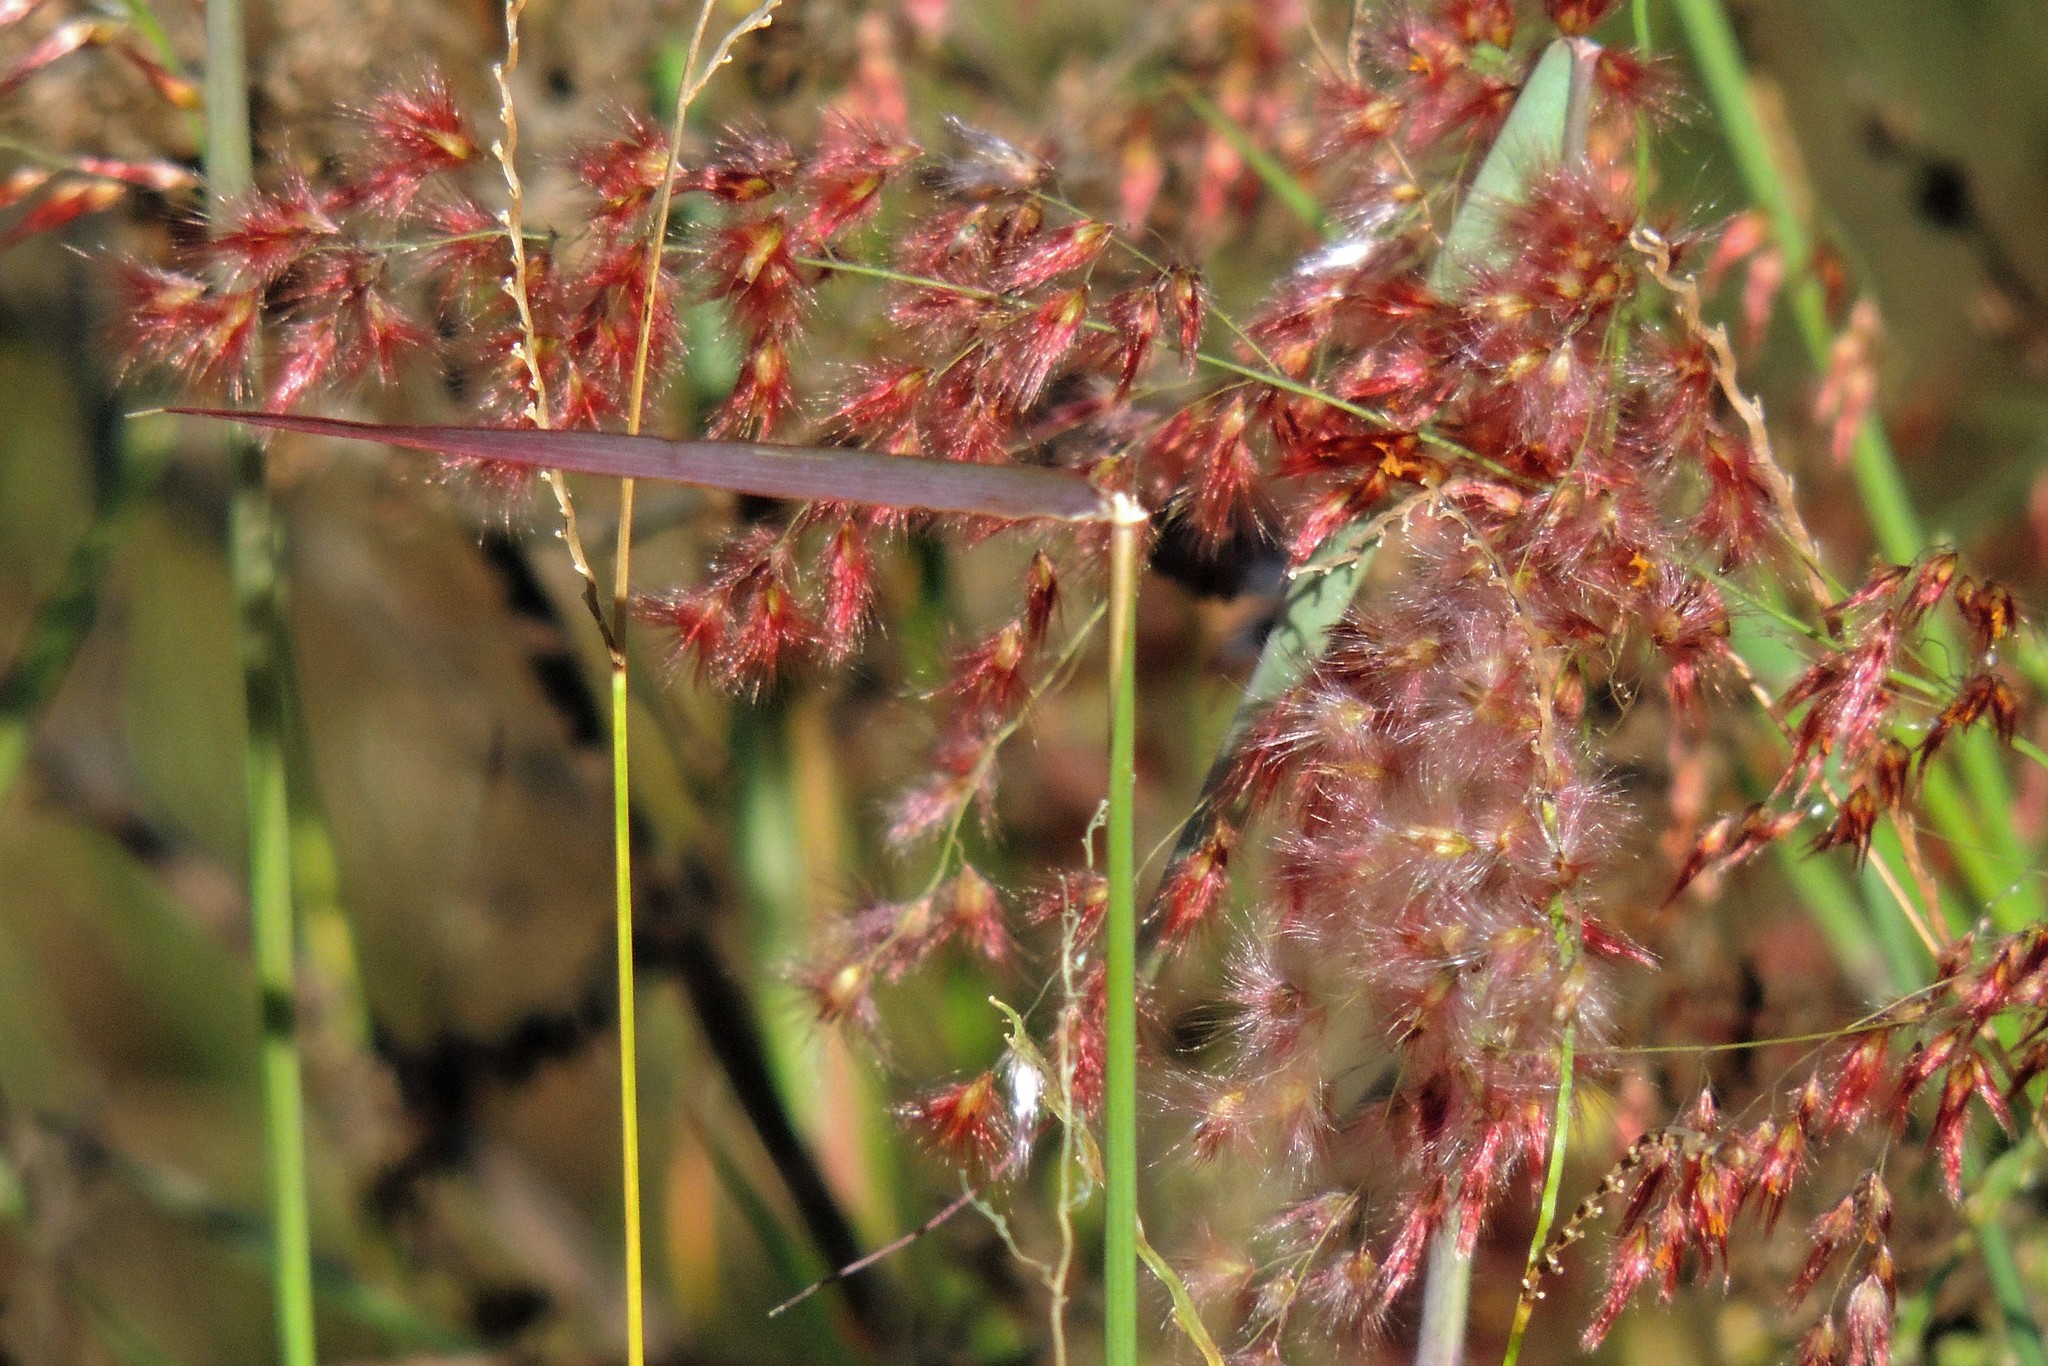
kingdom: Plantae
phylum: Tracheophyta
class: Liliopsida
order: Poales
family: Poaceae
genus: Melinis
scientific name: Melinis repens
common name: Rose natal grass
